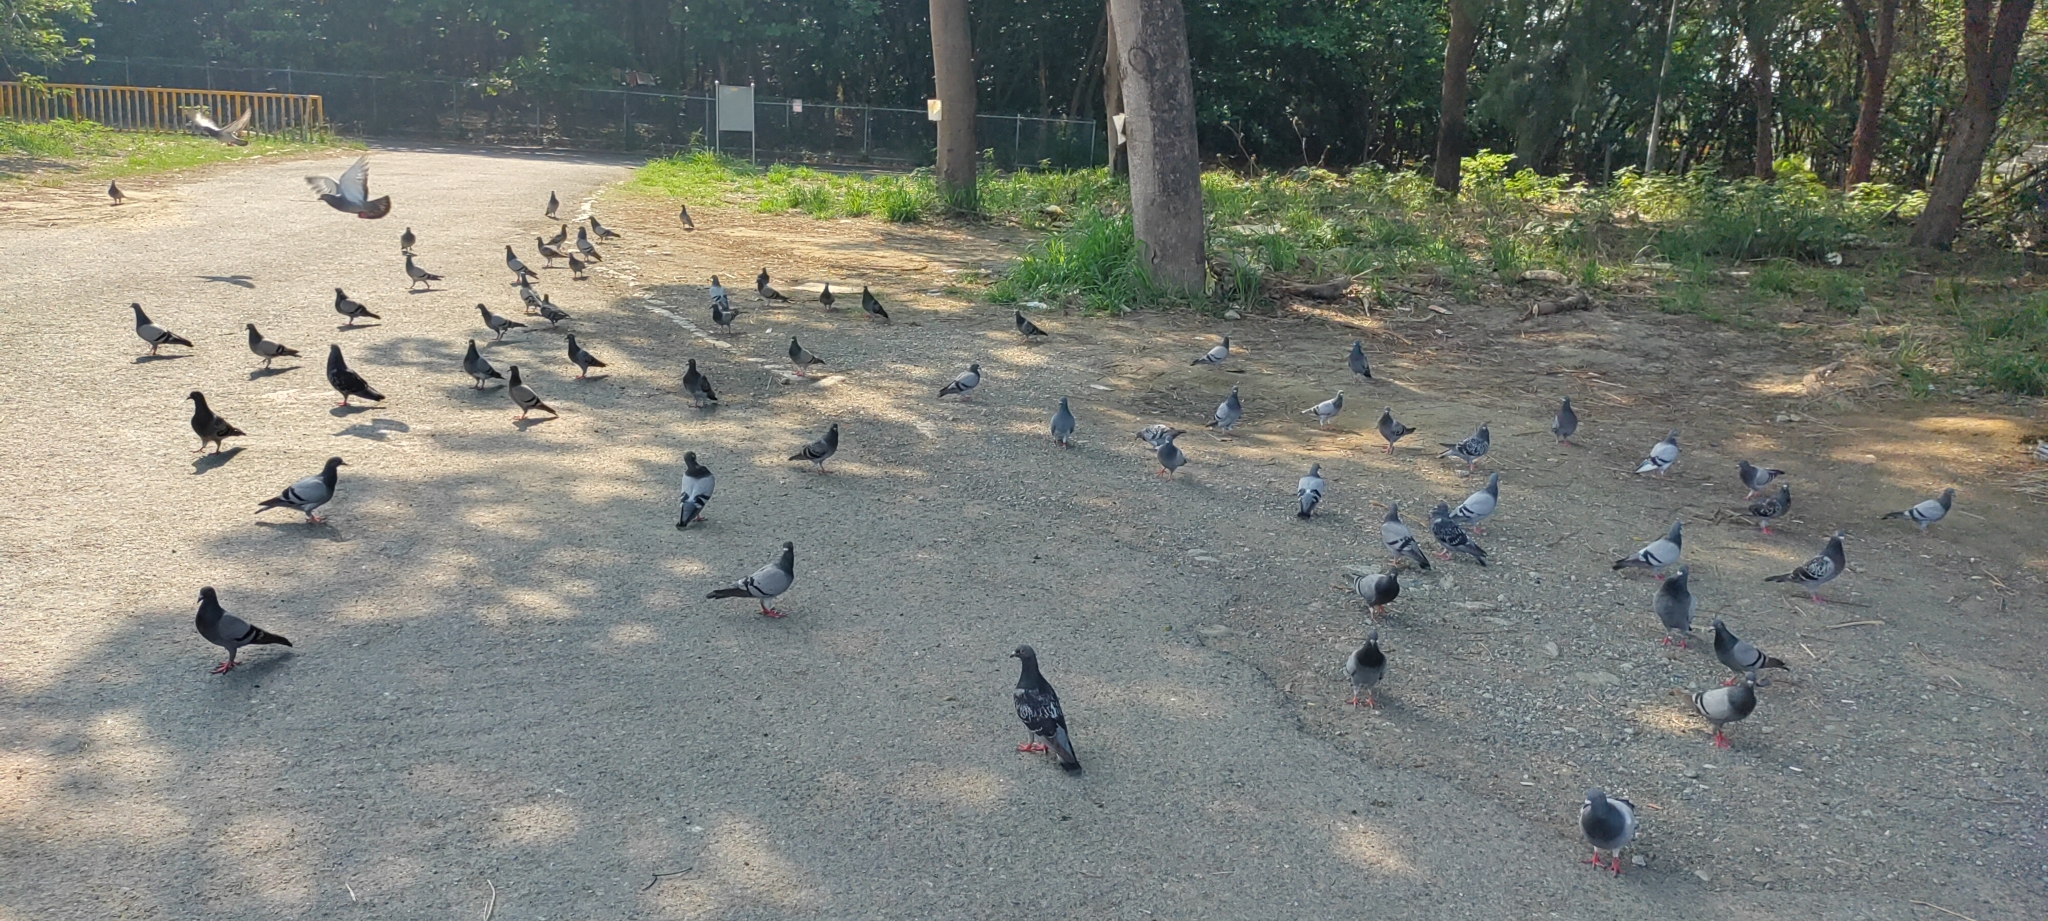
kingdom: Animalia
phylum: Chordata
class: Aves
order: Columbiformes
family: Columbidae
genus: Columba
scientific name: Columba livia
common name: Rock pigeon
